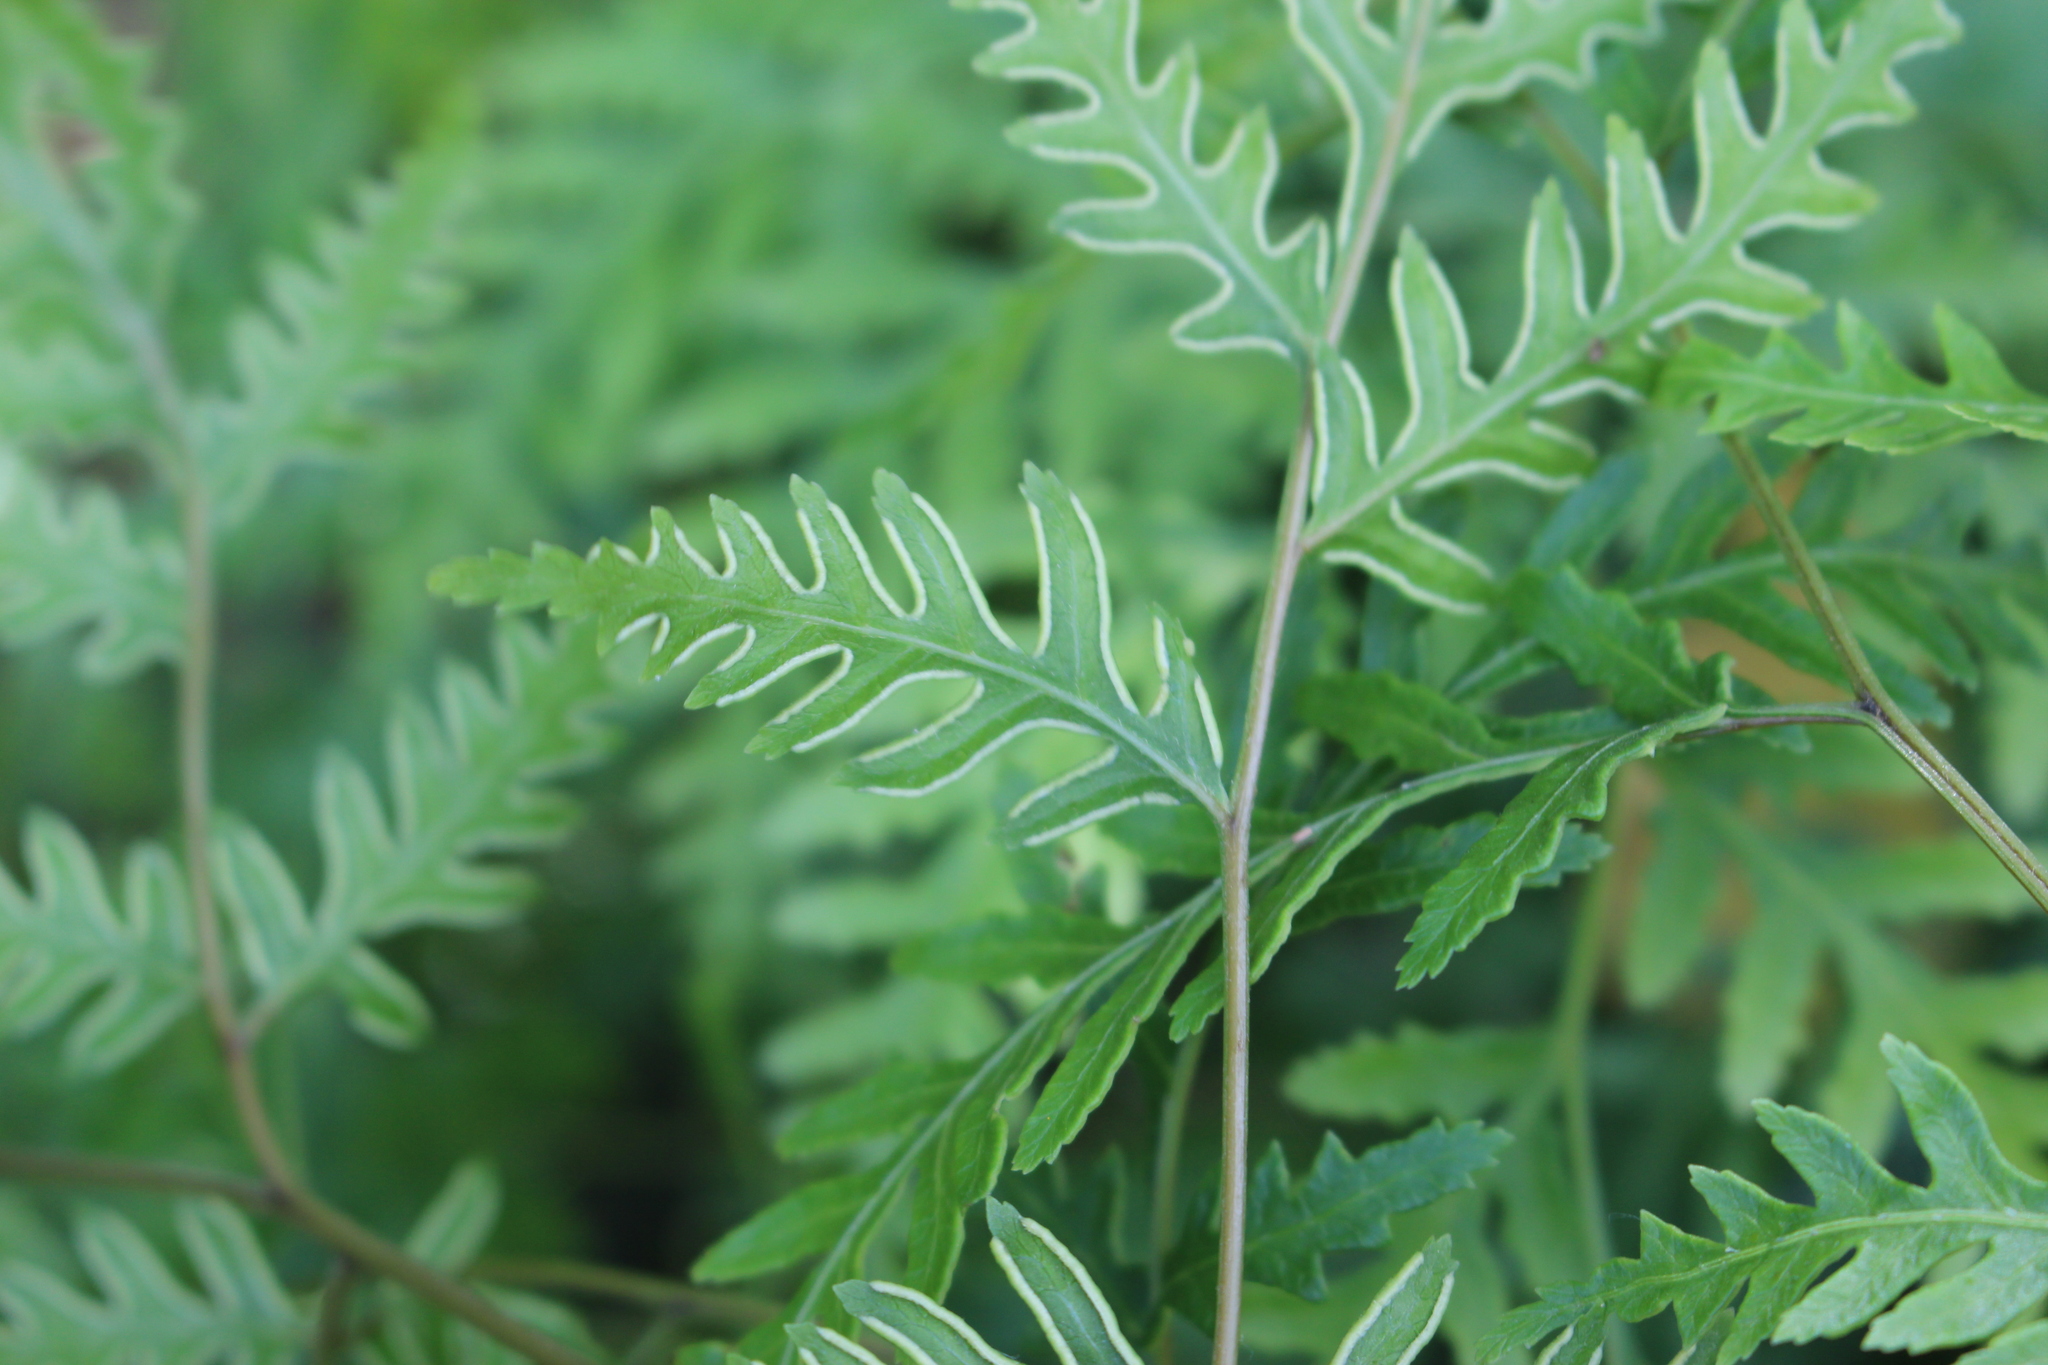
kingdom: Plantae
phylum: Tracheophyta
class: Polypodiopsida
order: Polypodiales
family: Pteridaceae
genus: Pteris
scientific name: Pteris macilenta
